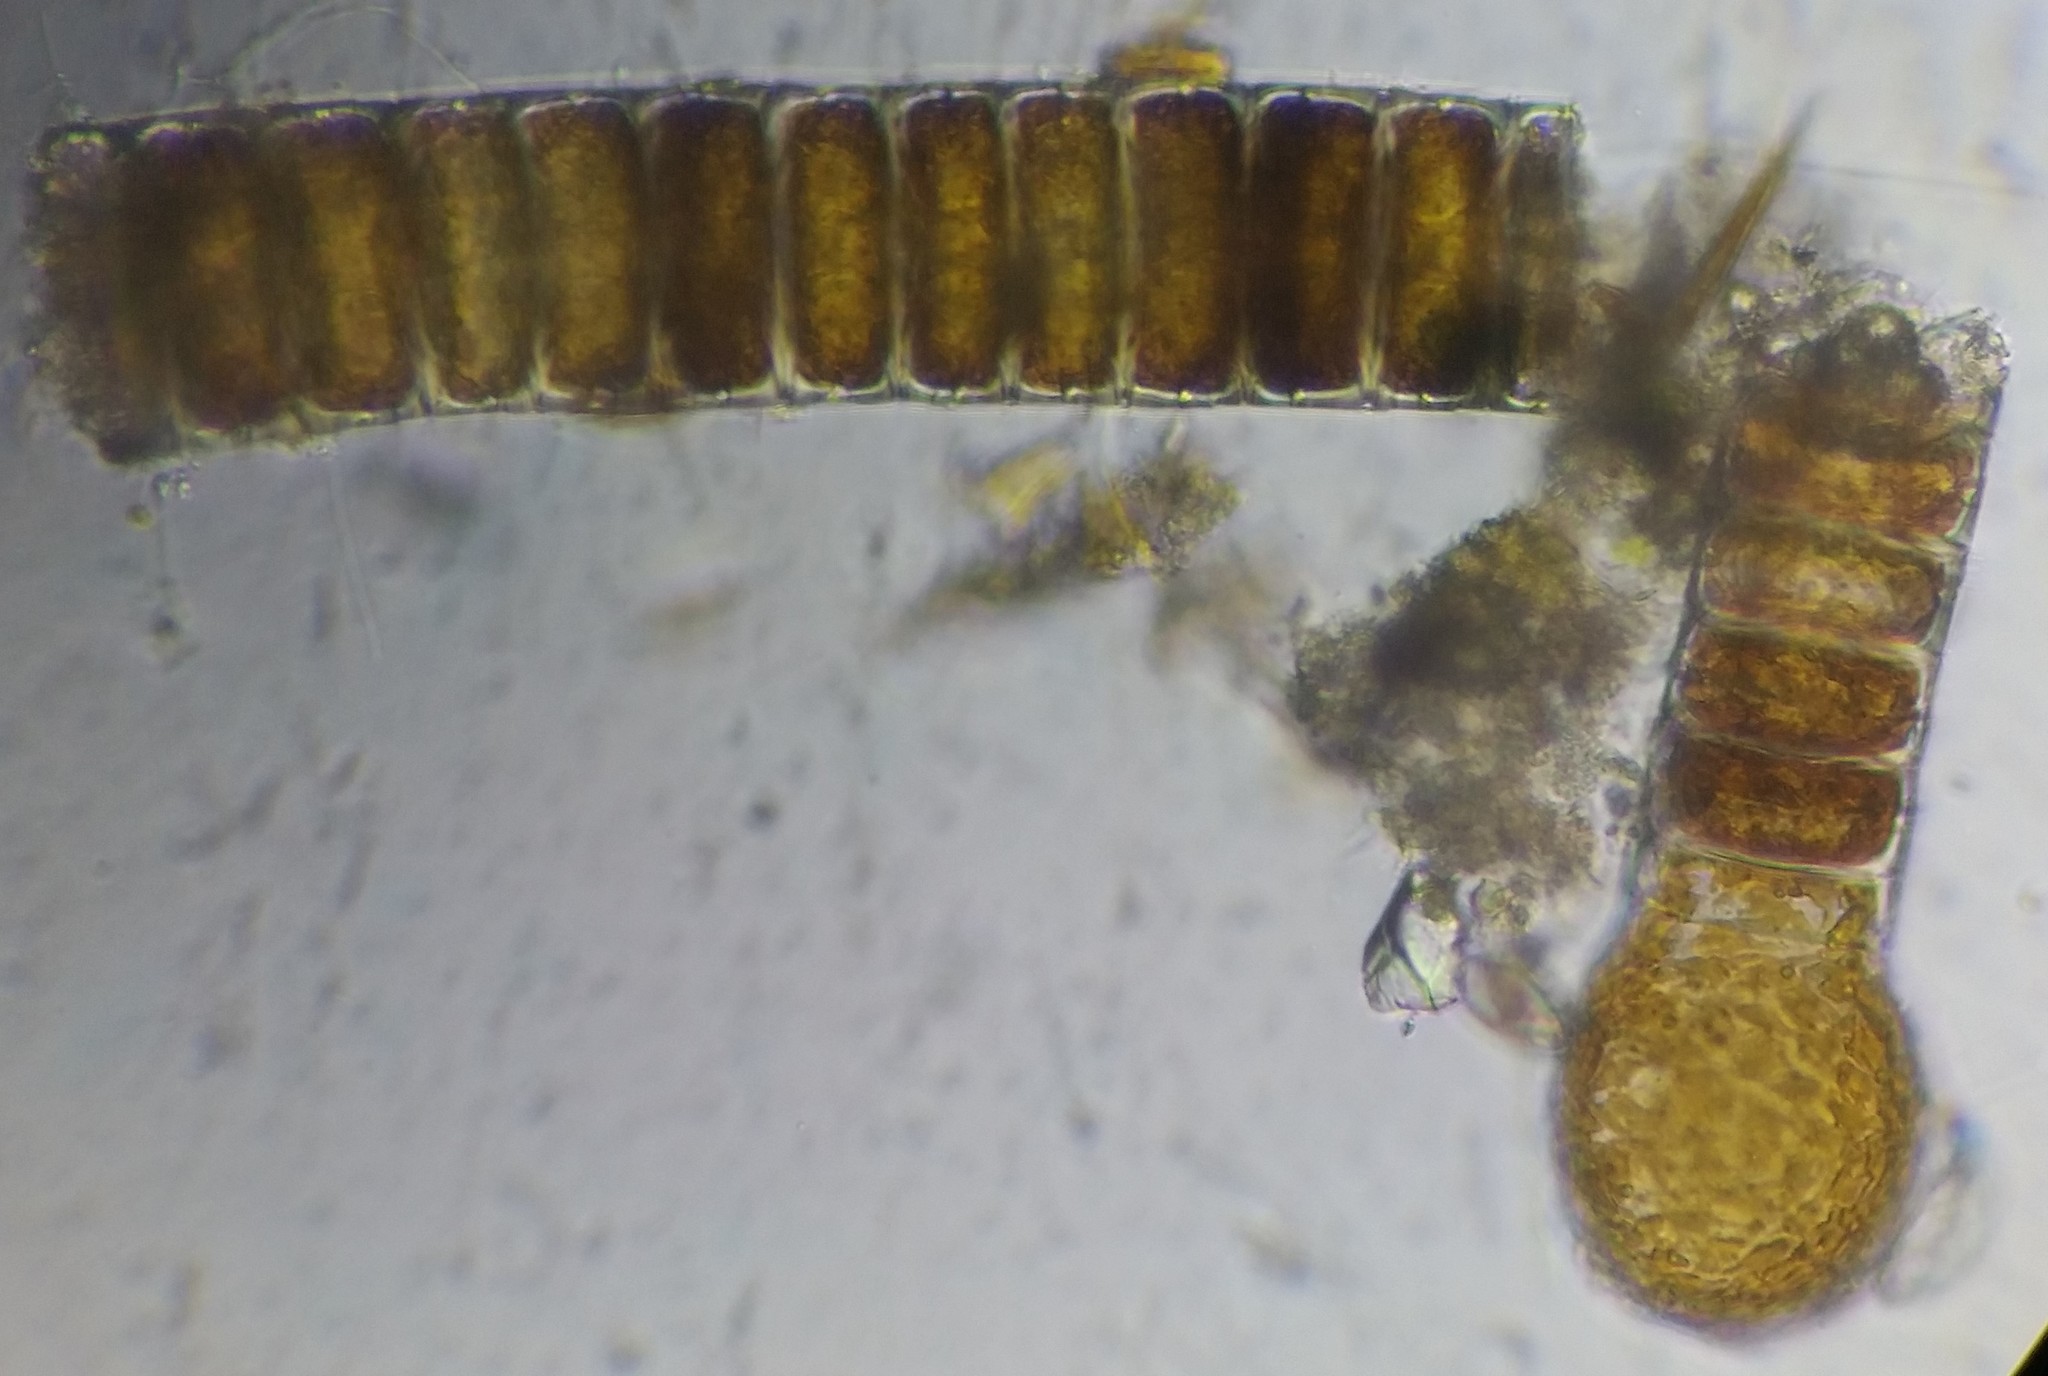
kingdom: Chromista
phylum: Ochrophyta
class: Bacillariophyceae
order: Melosirales
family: Melosiraceae
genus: Melosira
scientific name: Melosira arenaria
